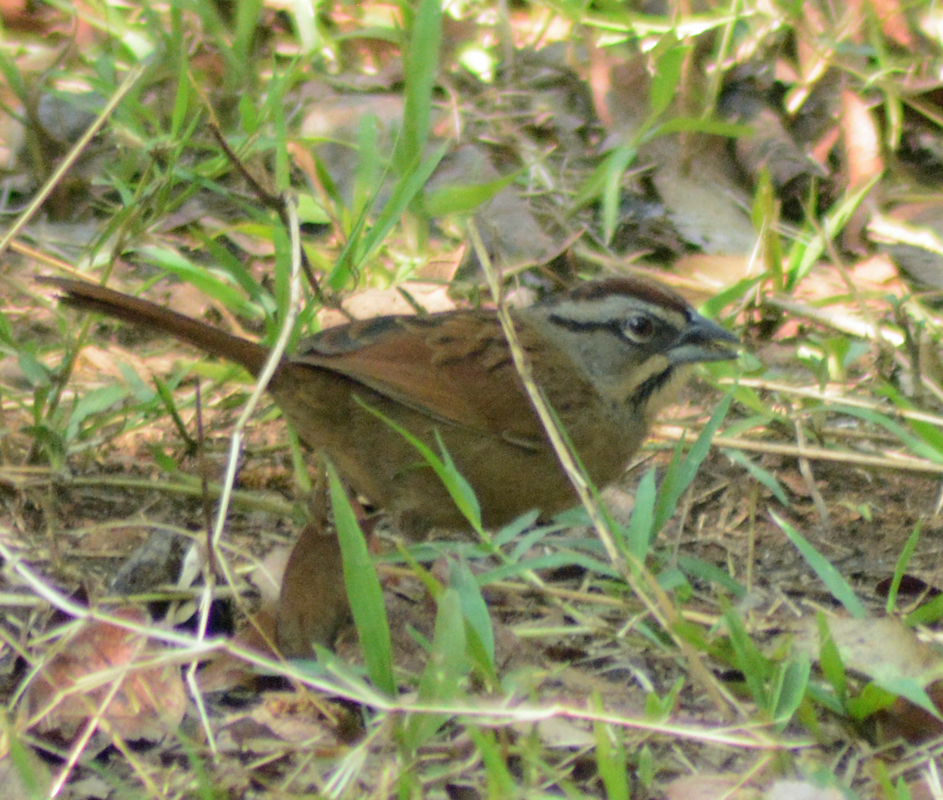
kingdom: Animalia
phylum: Chordata
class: Aves
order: Passeriformes
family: Passerellidae
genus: Aimophila
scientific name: Aimophila rufescens
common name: Rusty sparrow
